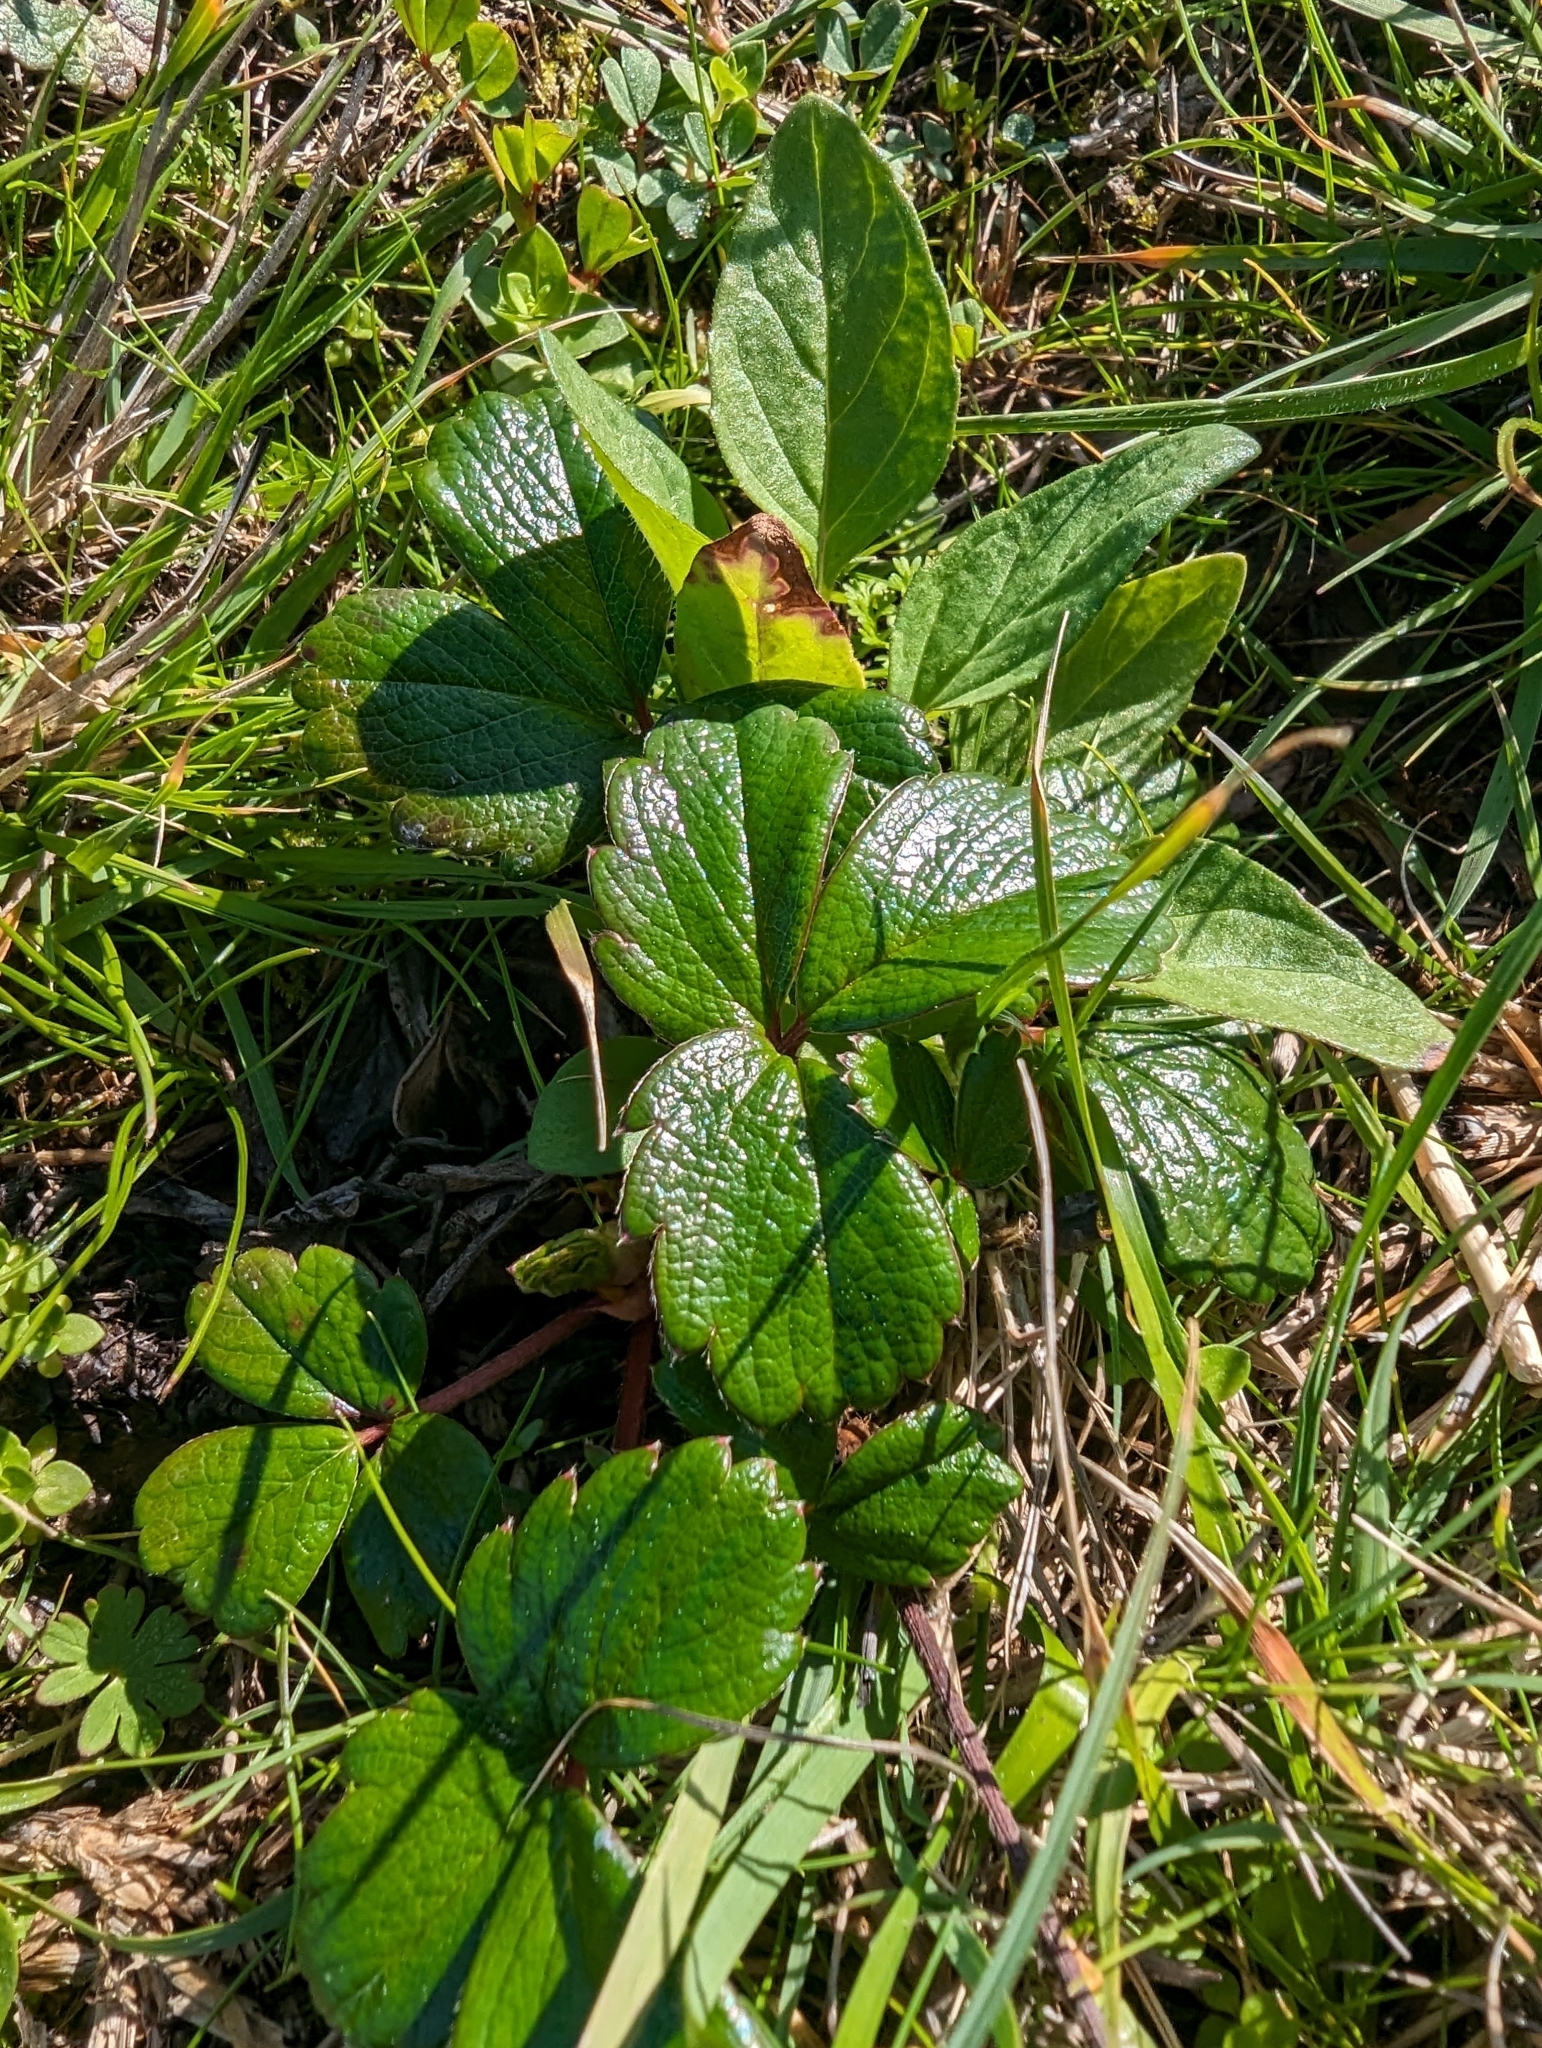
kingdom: Plantae
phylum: Tracheophyta
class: Magnoliopsida
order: Rosales
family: Rosaceae
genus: Fragaria
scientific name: Fragaria chiloensis
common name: Beach strawberry
